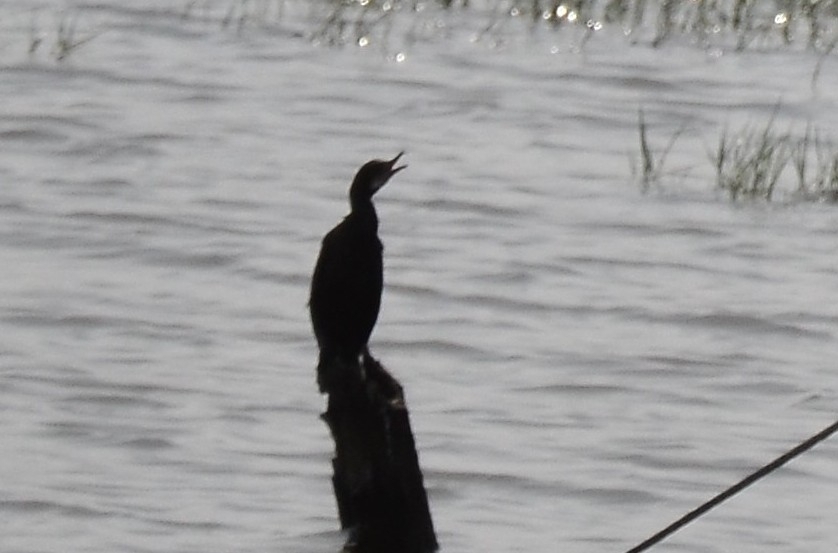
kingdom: Animalia
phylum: Chordata
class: Aves
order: Suliformes
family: Phalacrocoracidae
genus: Microcarbo
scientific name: Microcarbo niger
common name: Little cormorant
